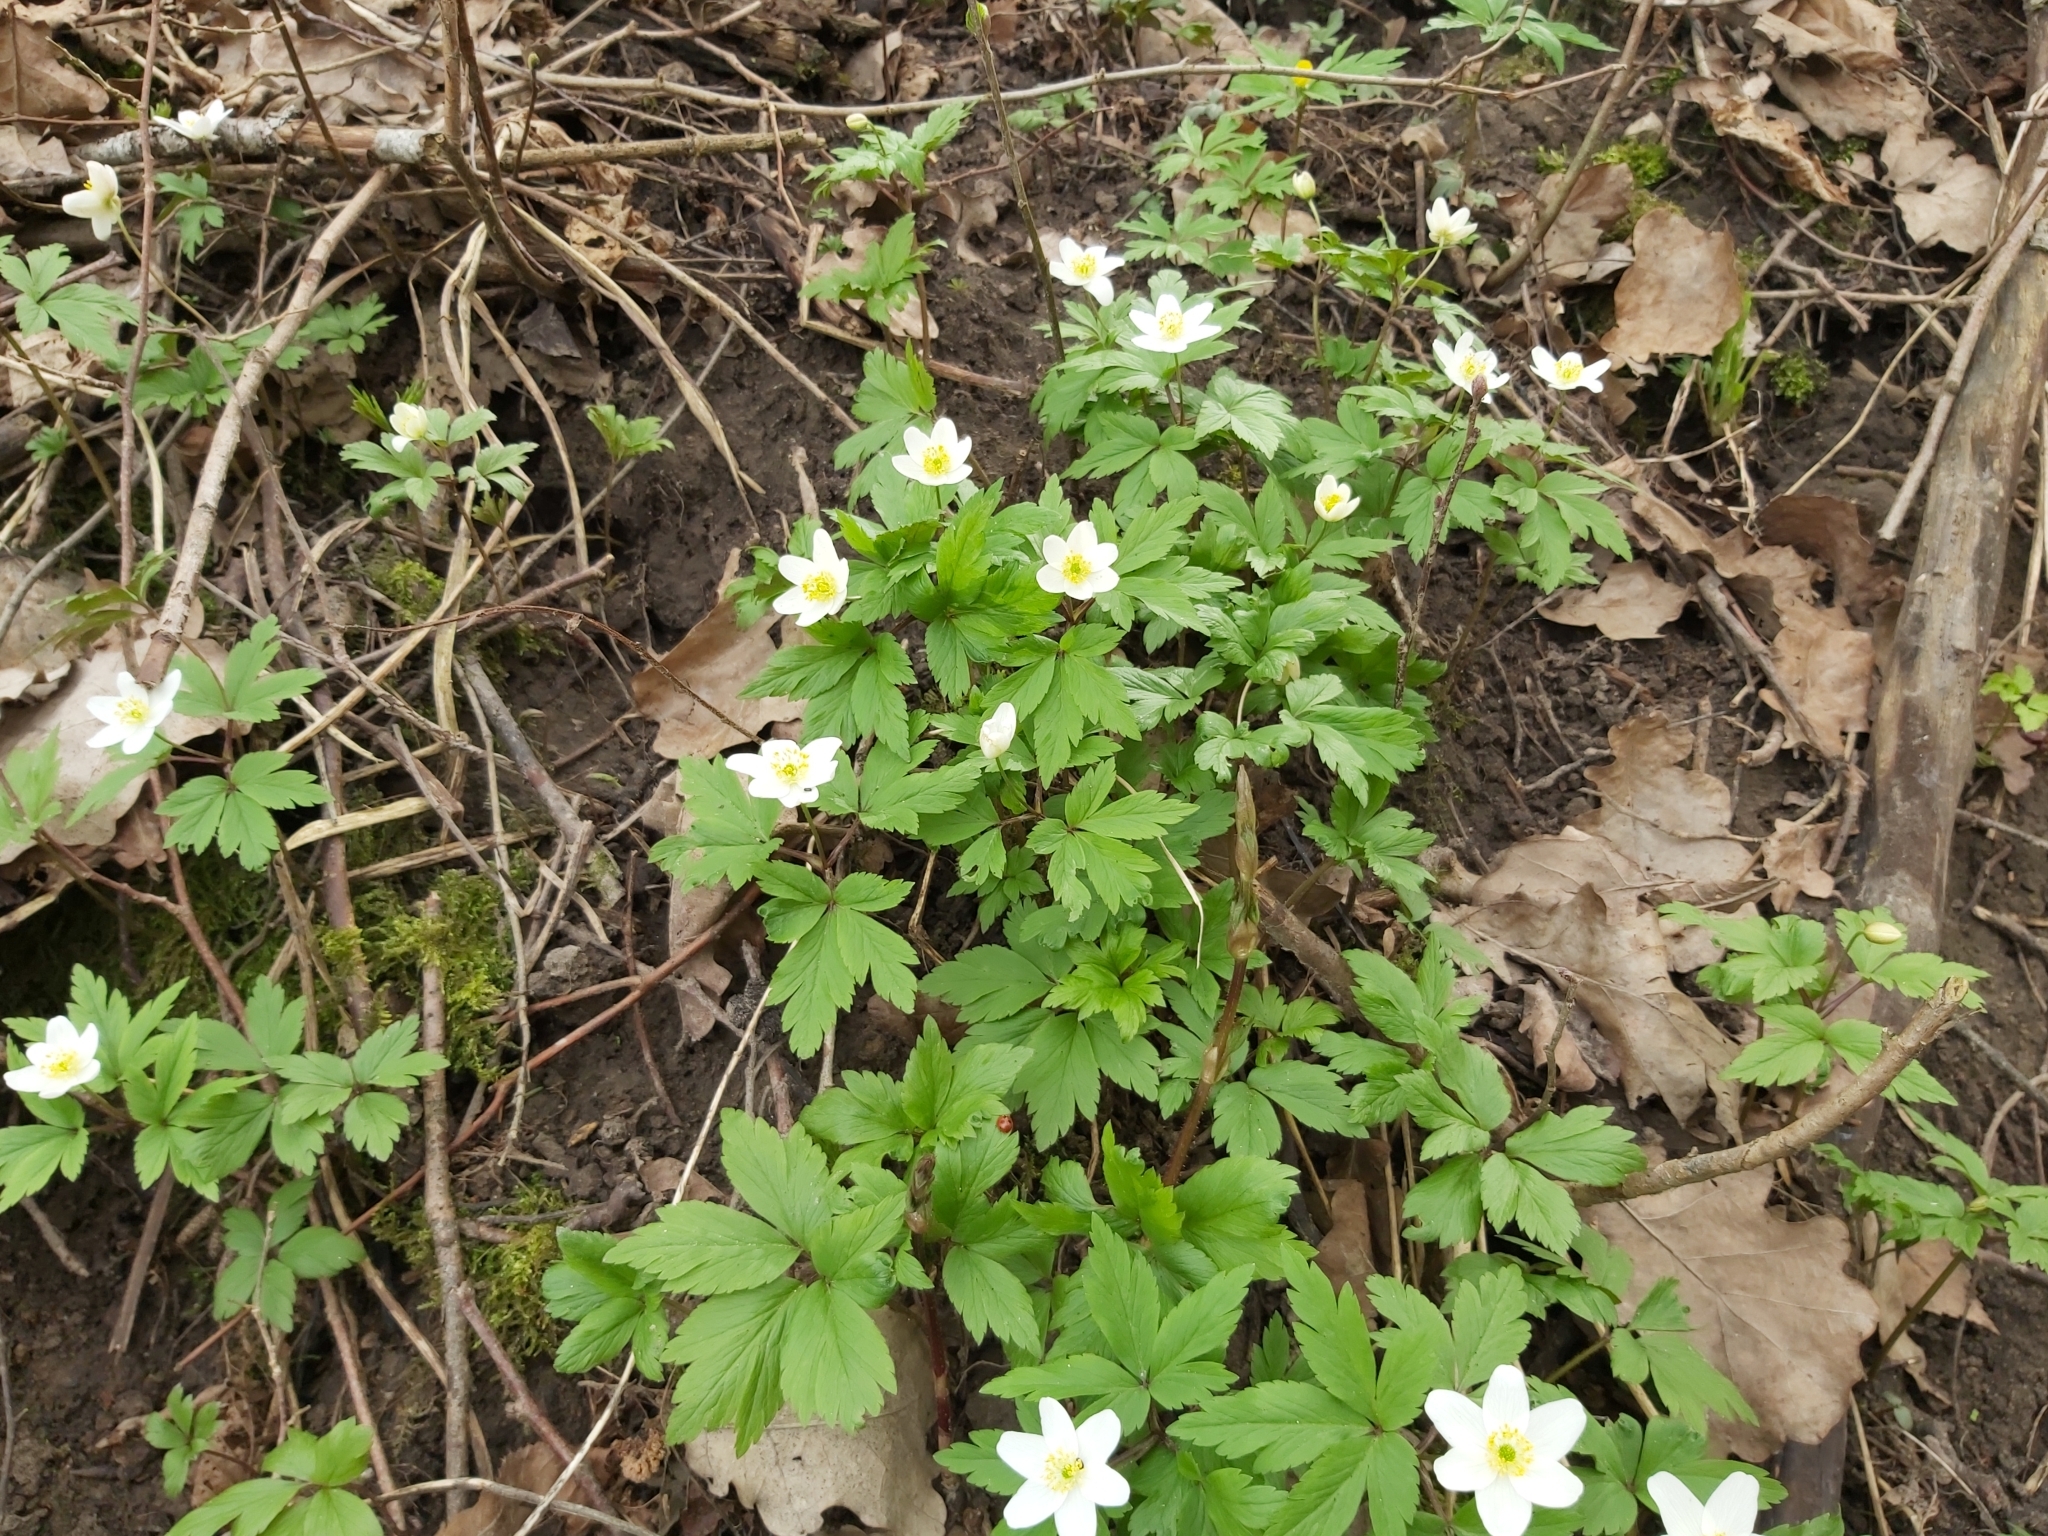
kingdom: Plantae
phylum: Tracheophyta
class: Magnoliopsida
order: Ranunculales
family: Ranunculaceae
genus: Anemone
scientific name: Anemone nemorosa
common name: Wood anemone
